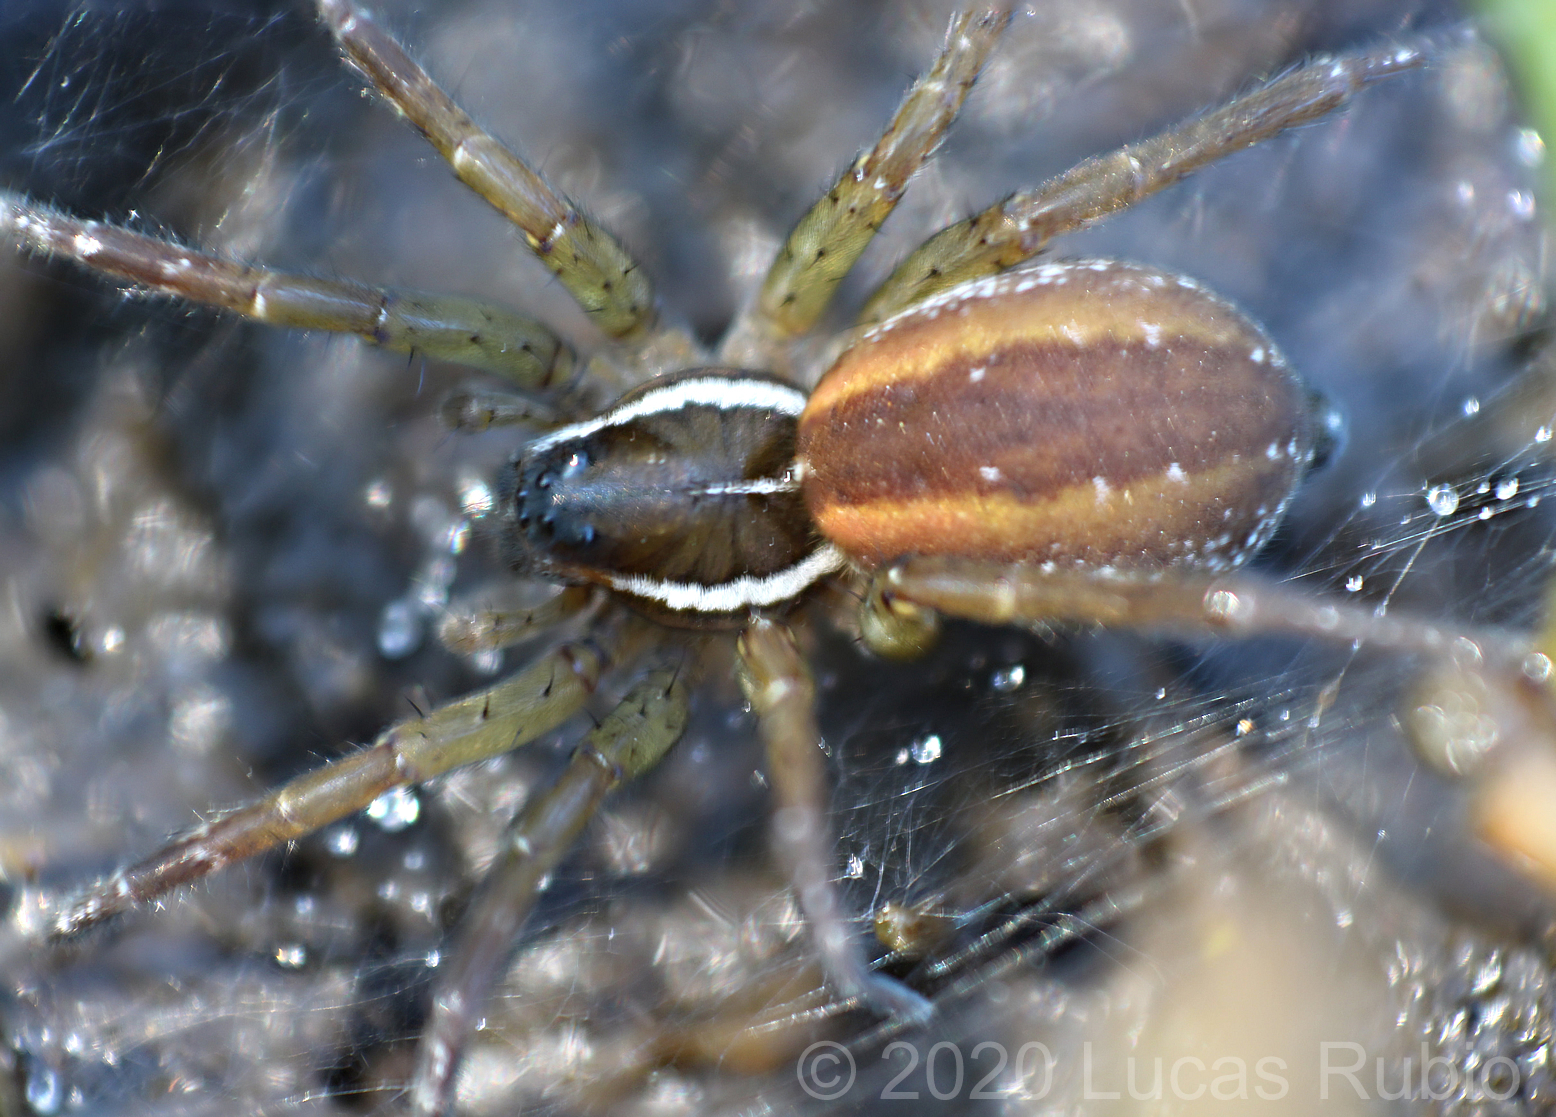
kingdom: Animalia
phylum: Arthropoda
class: Arachnida
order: Araneae
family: Lycosidae
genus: Diapontia
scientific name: Diapontia uruguayensis
